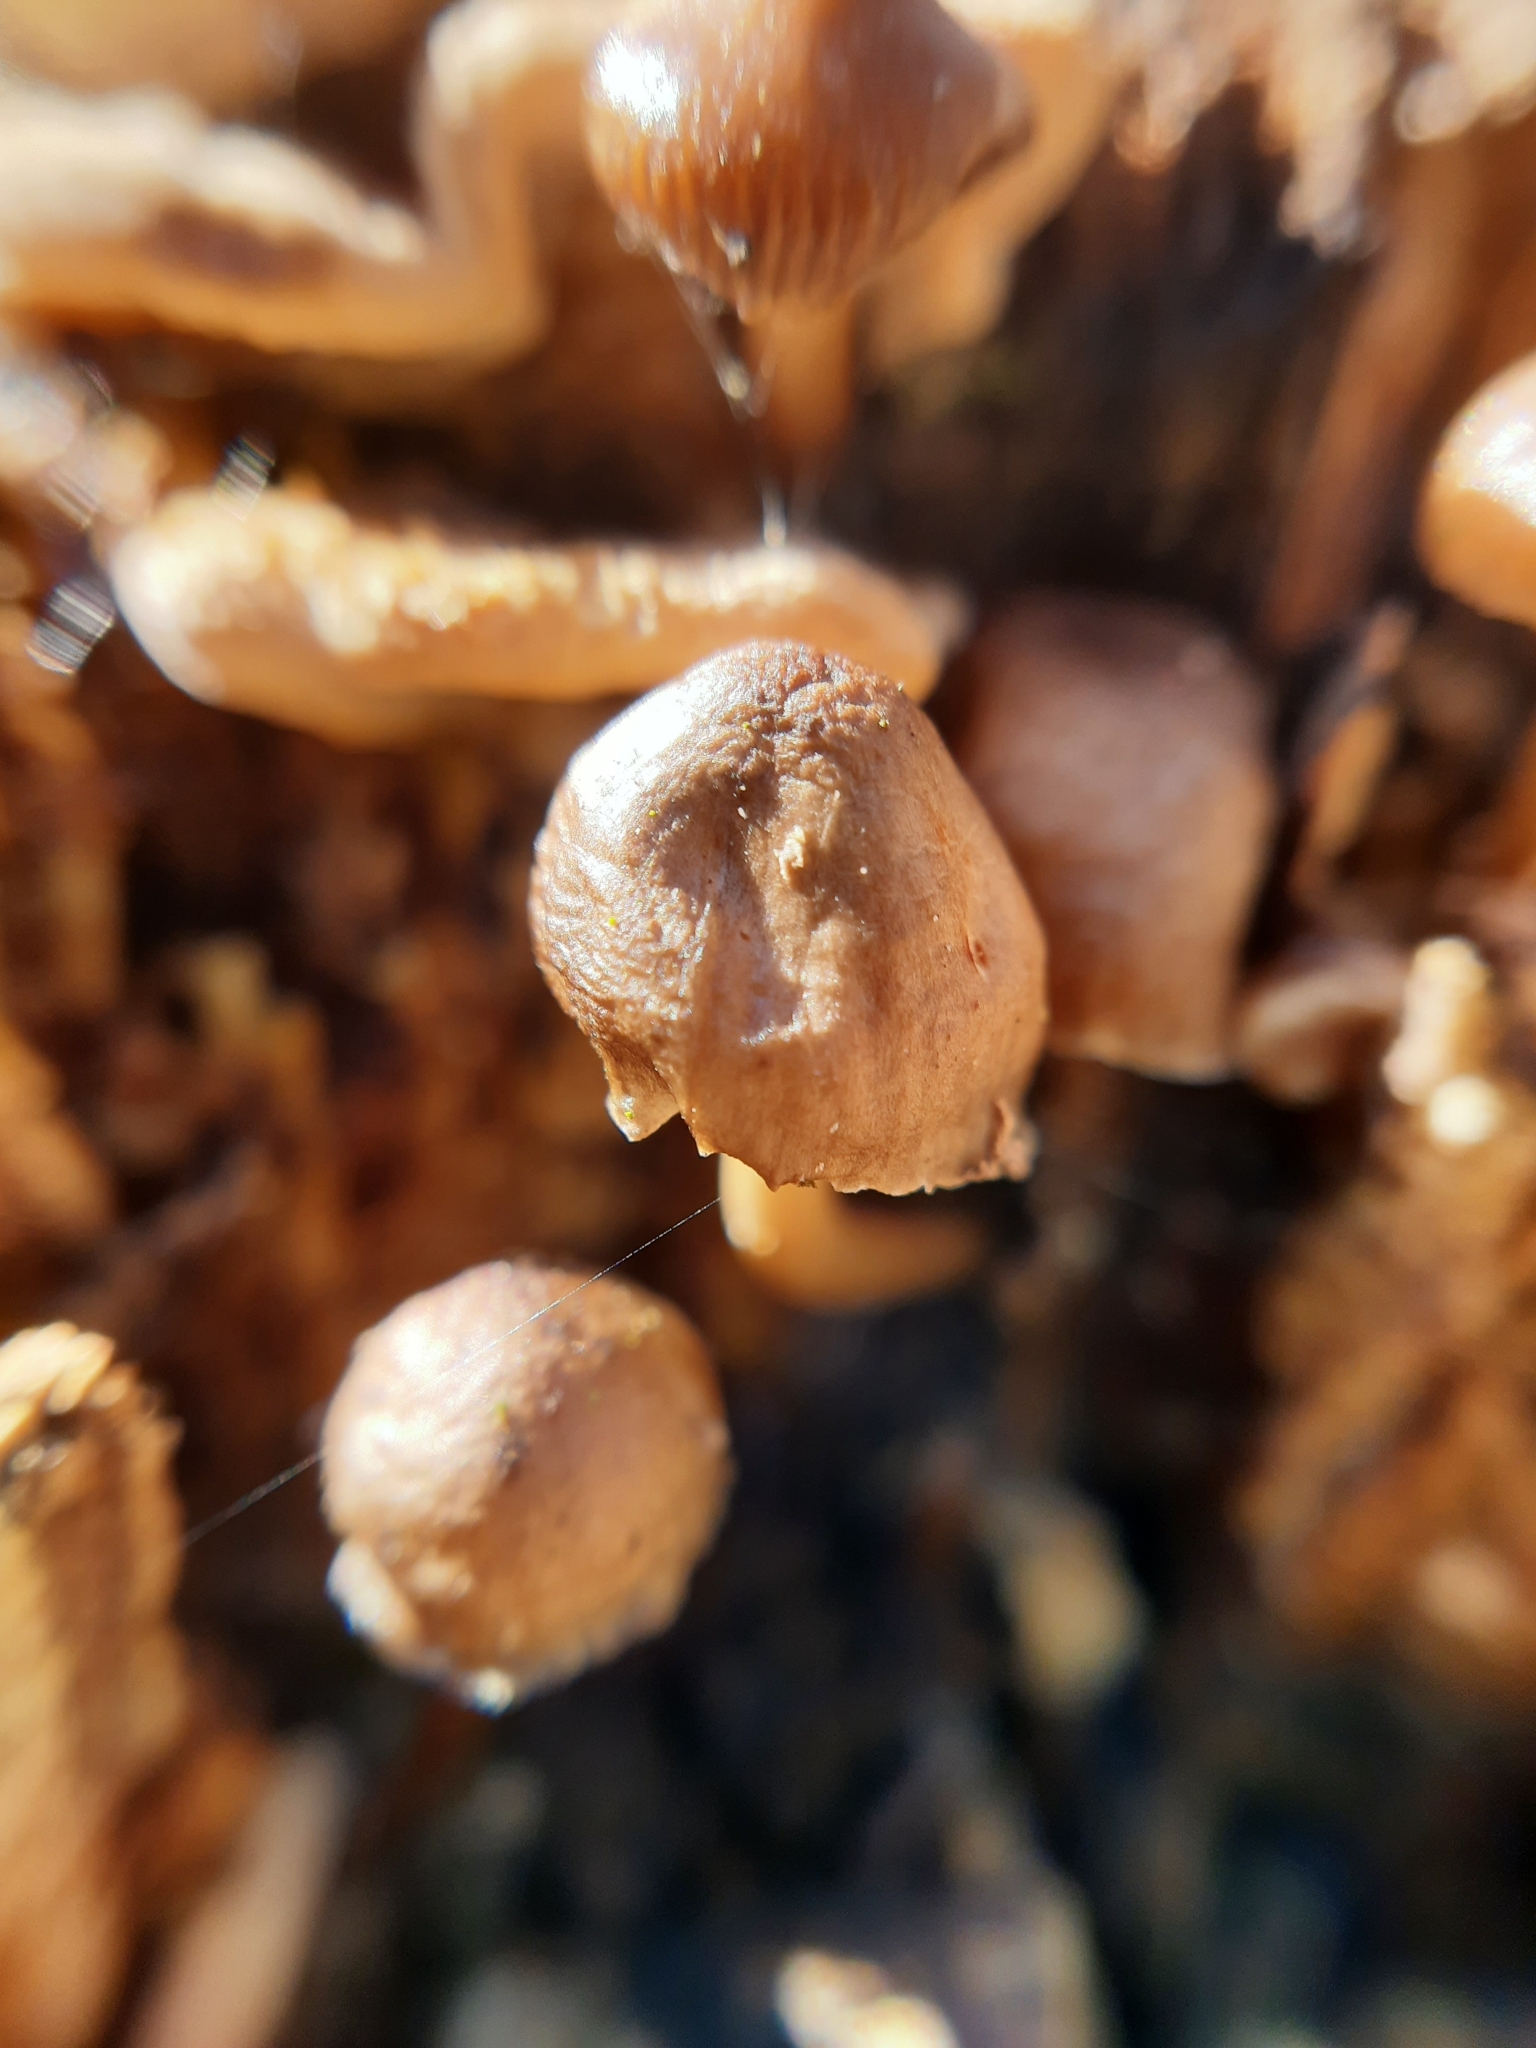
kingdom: Fungi
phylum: Basidiomycota
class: Agaricomycetes
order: Agaricales
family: Mycenaceae
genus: Mycena
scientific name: Mycena tintinnabulum
